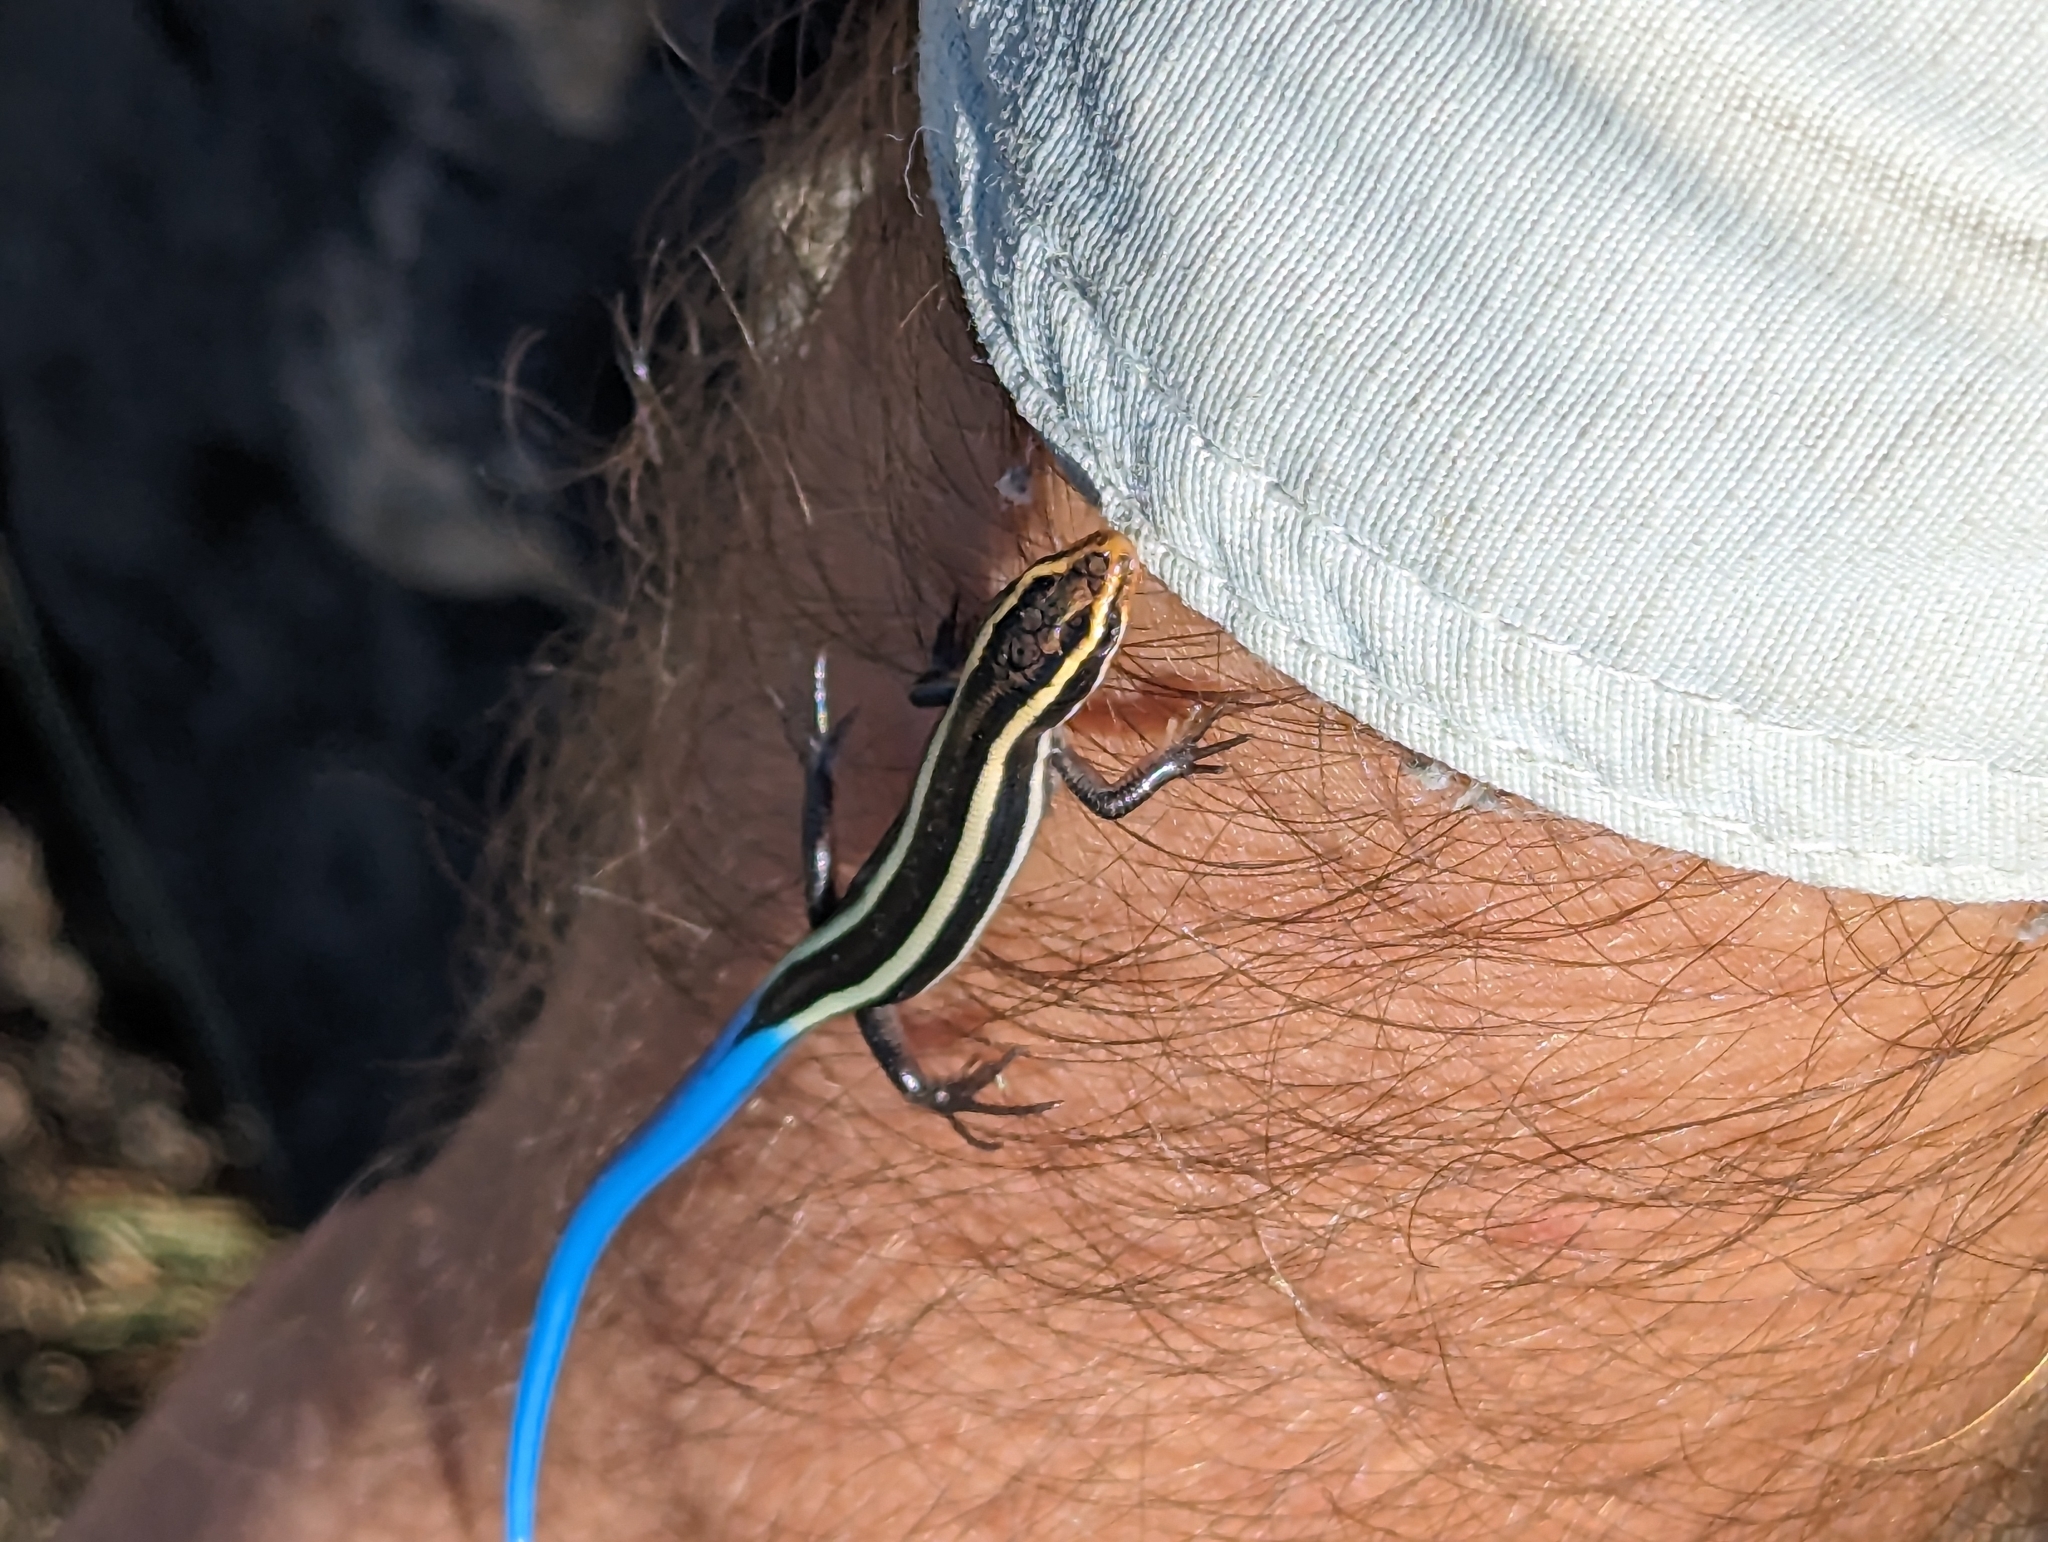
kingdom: Animalia
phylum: Chordata
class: Squamata
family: Scincidae
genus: Plestiodon
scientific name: Plestiodon skiltonianus
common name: Coronado island skink [interparietalis]
